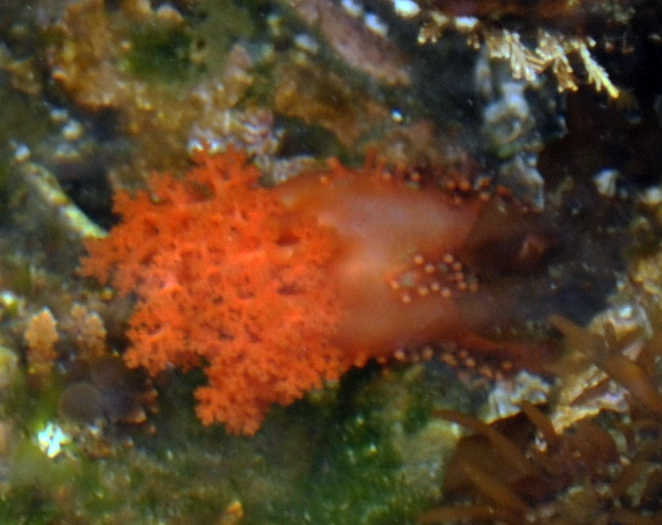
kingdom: Animalia
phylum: Echinodermata
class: Holothuroidea
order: Dendrochirotida
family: Cucumariidae
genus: Cucumaria
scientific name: Cucumaria miniata
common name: Orange sea cucumber
